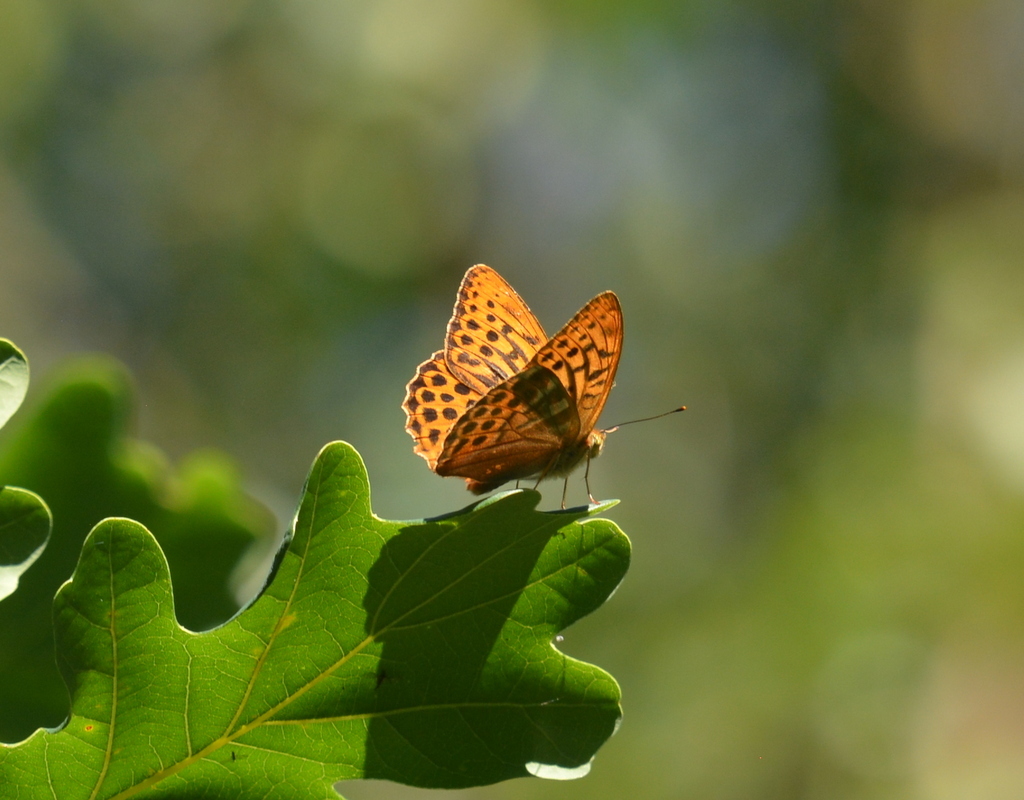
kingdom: Animalia
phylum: Arthropoda
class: Insecta
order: Lepidoptera
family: Nymphalidae
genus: Argynnis
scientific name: Argynnis paphia
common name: Silver-washed fritillary
